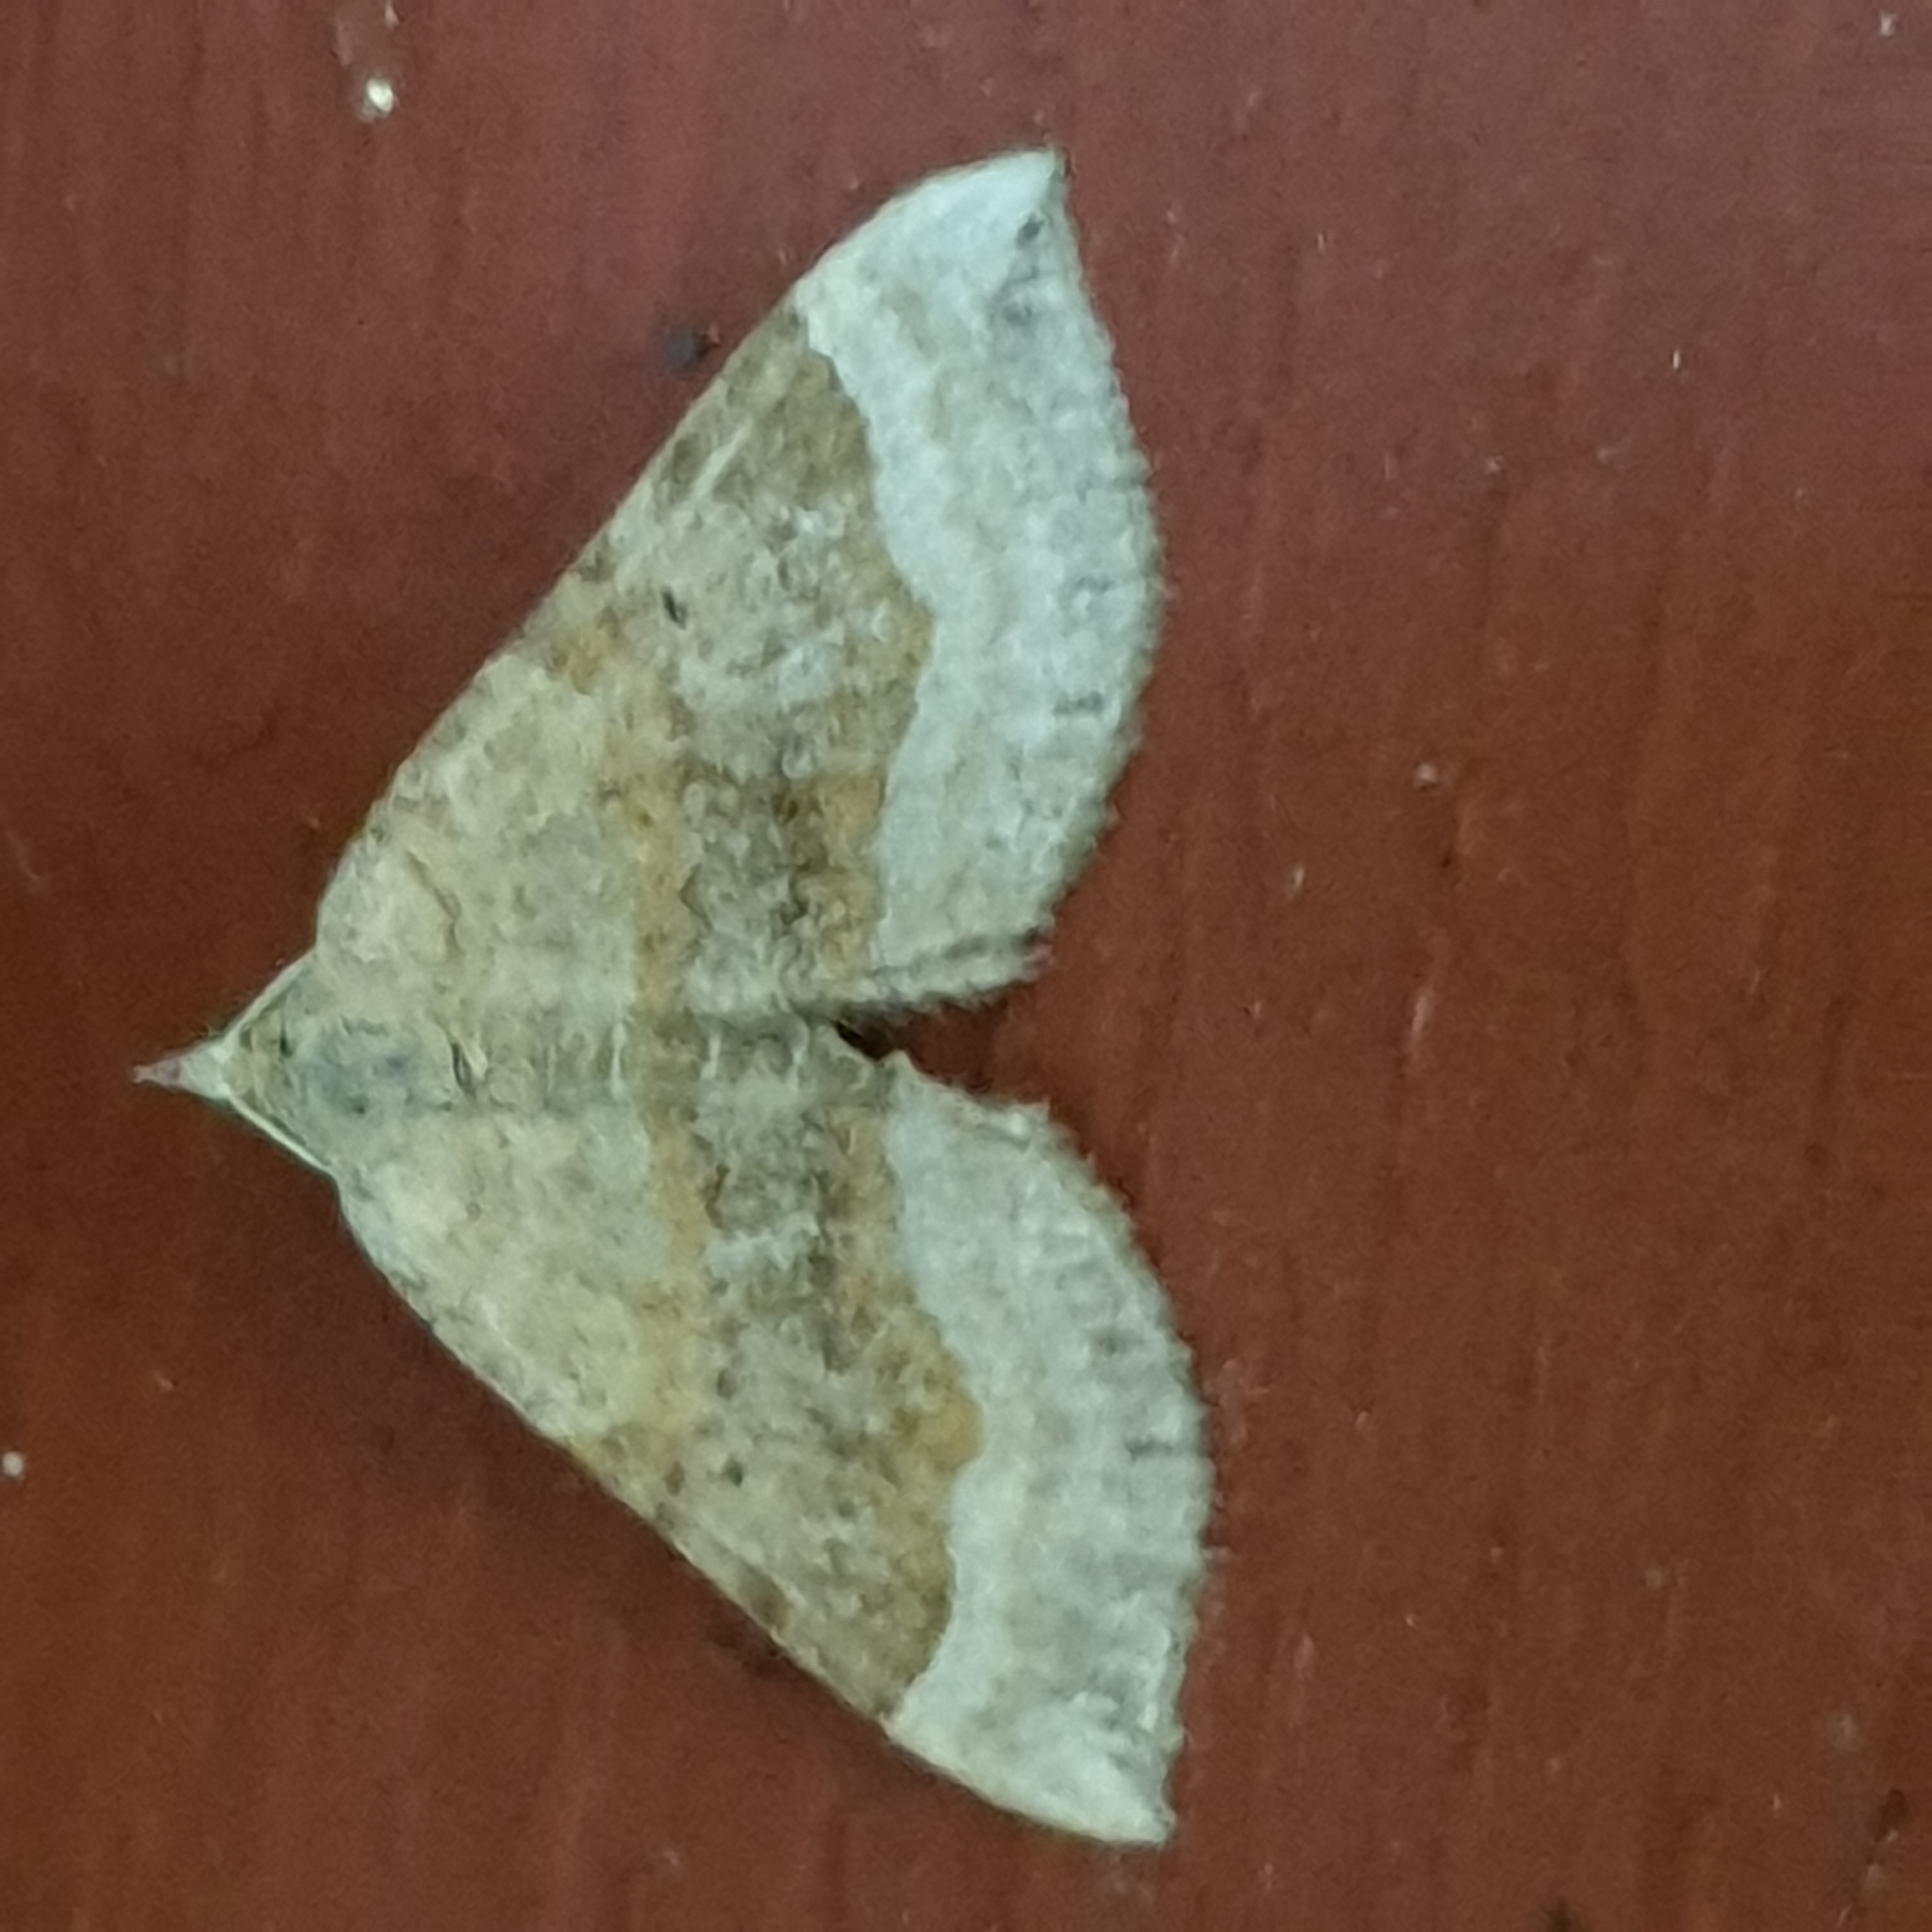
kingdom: Animalia
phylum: Arthropoda
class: Insecta
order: Lepidoptera
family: Geometridae
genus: Scotopteryx
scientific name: Scotopteryx chenopodiata
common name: Shaded broad-bar
